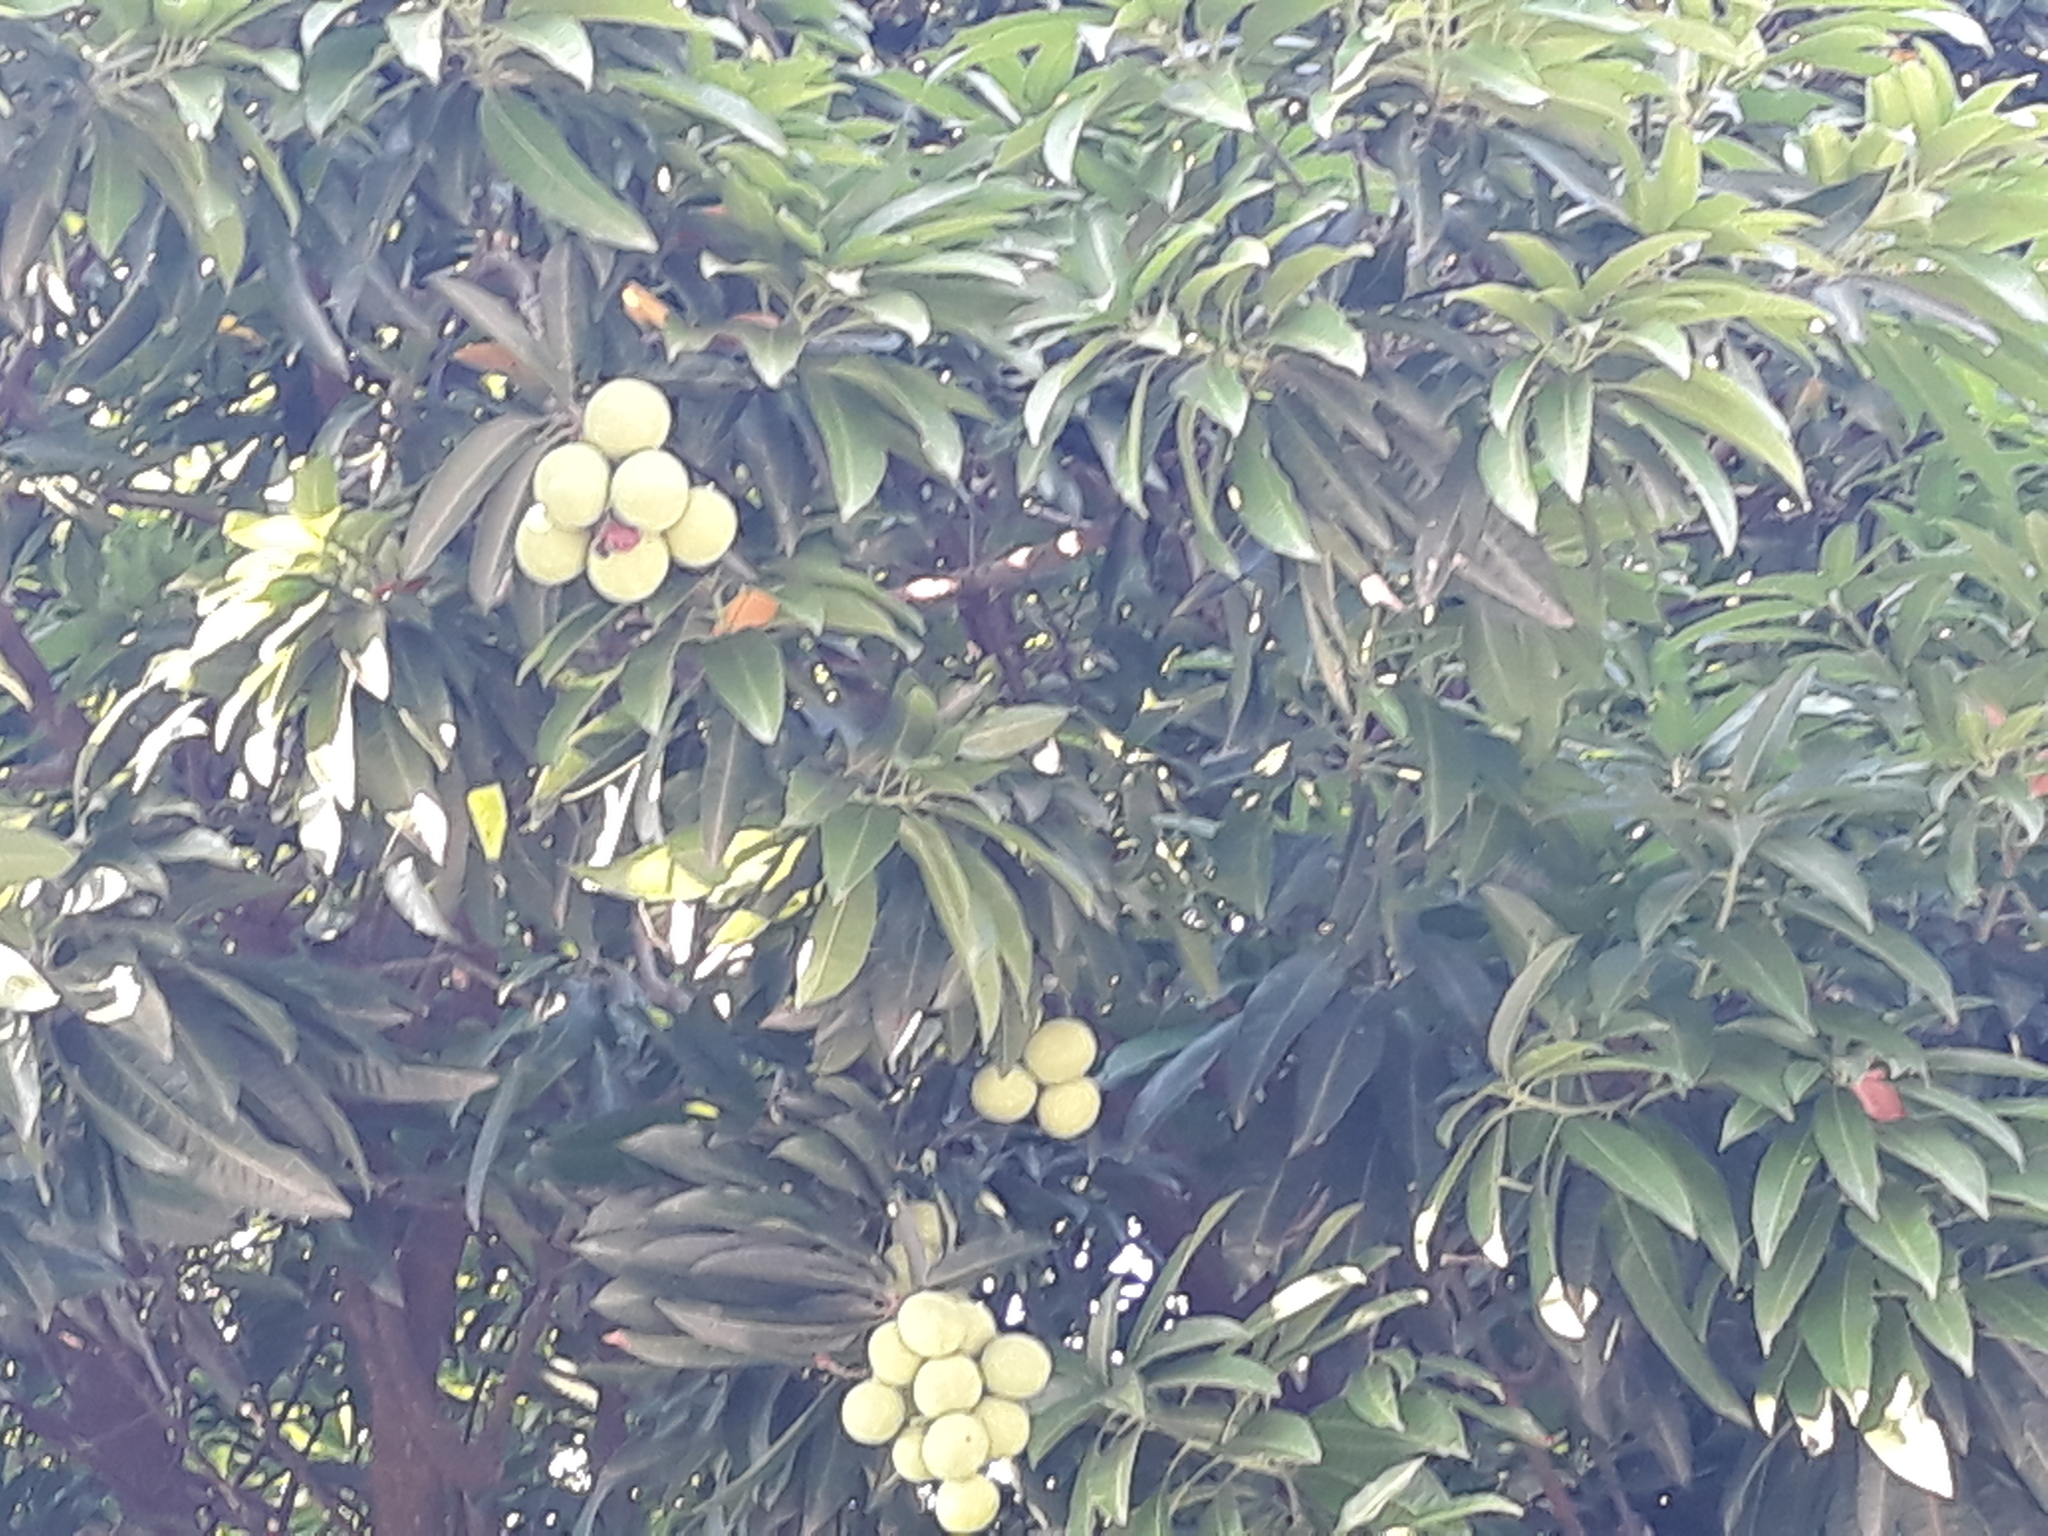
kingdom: Plantae
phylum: Tracheophyta
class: Magnoliopsida
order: Sapindales
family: Anacardiaceae
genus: Mangifera
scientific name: Mangifera indica
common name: Mango
